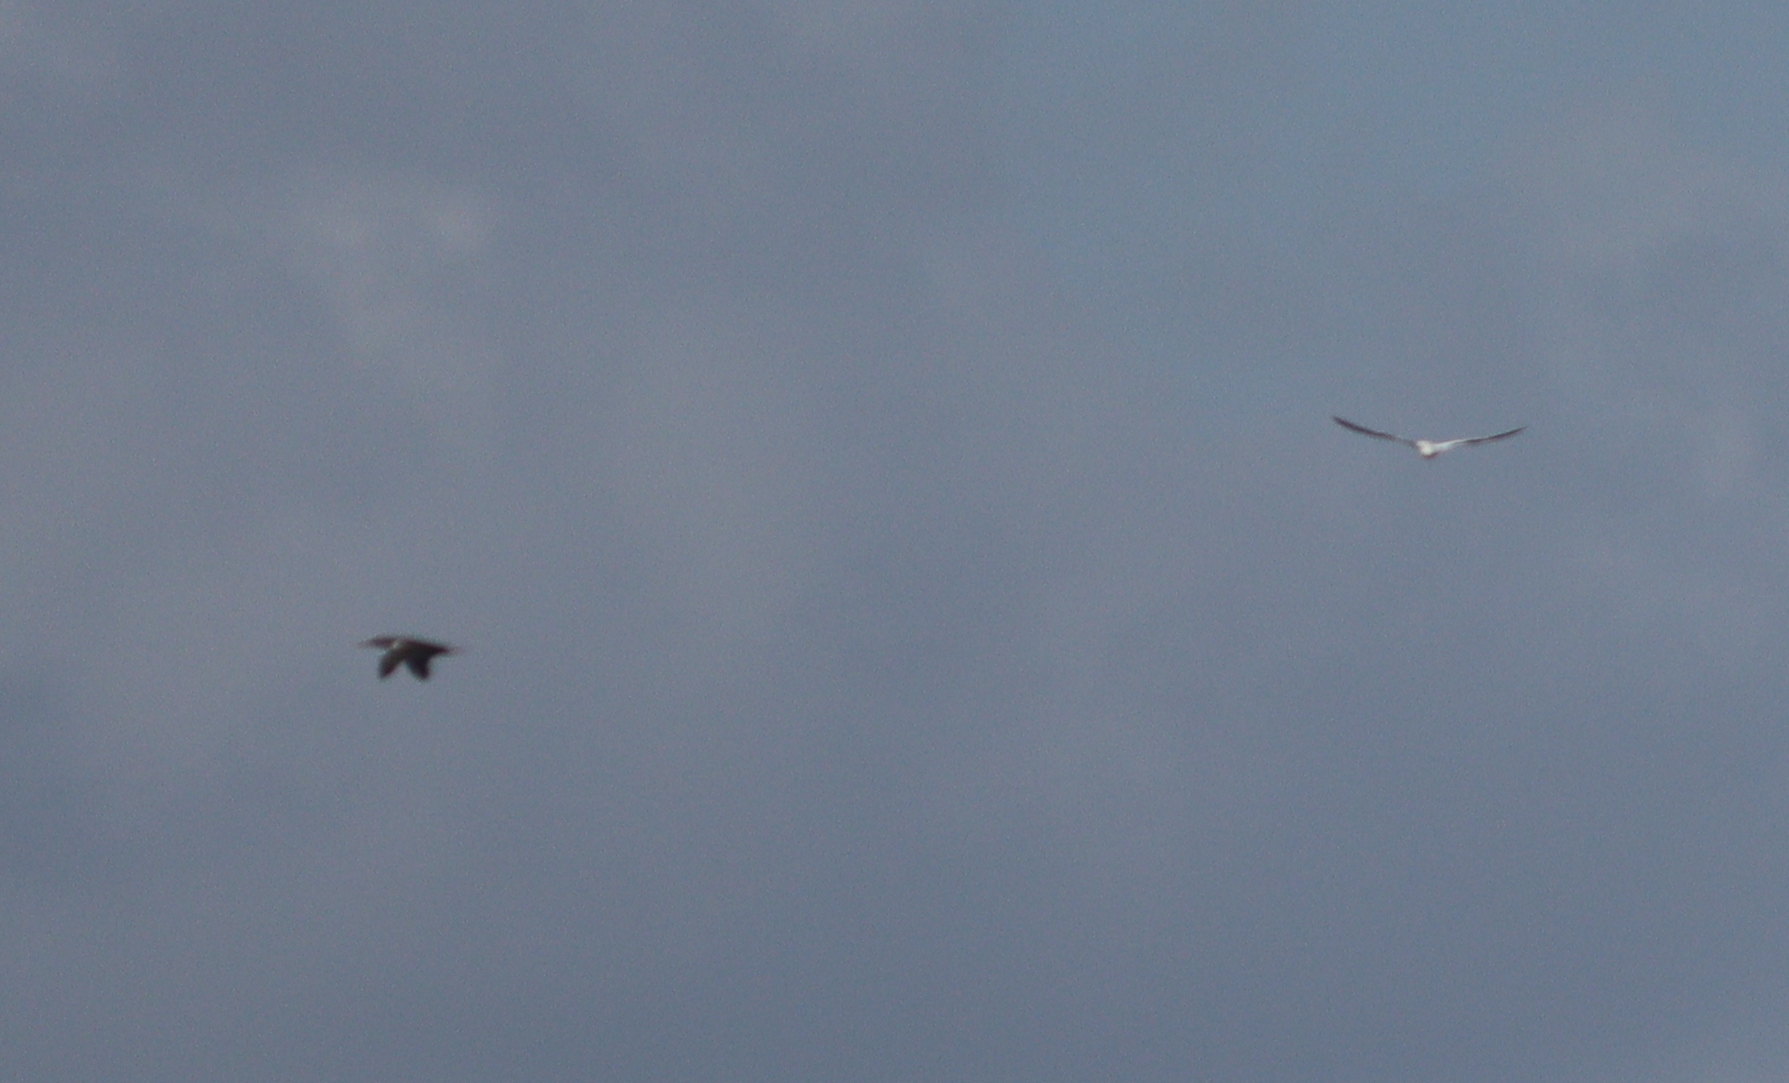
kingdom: Animalia
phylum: Chordata
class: Aves
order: Suliformes
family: Sulidae
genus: Morus
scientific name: Morus bassanus
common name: Northern gannet
